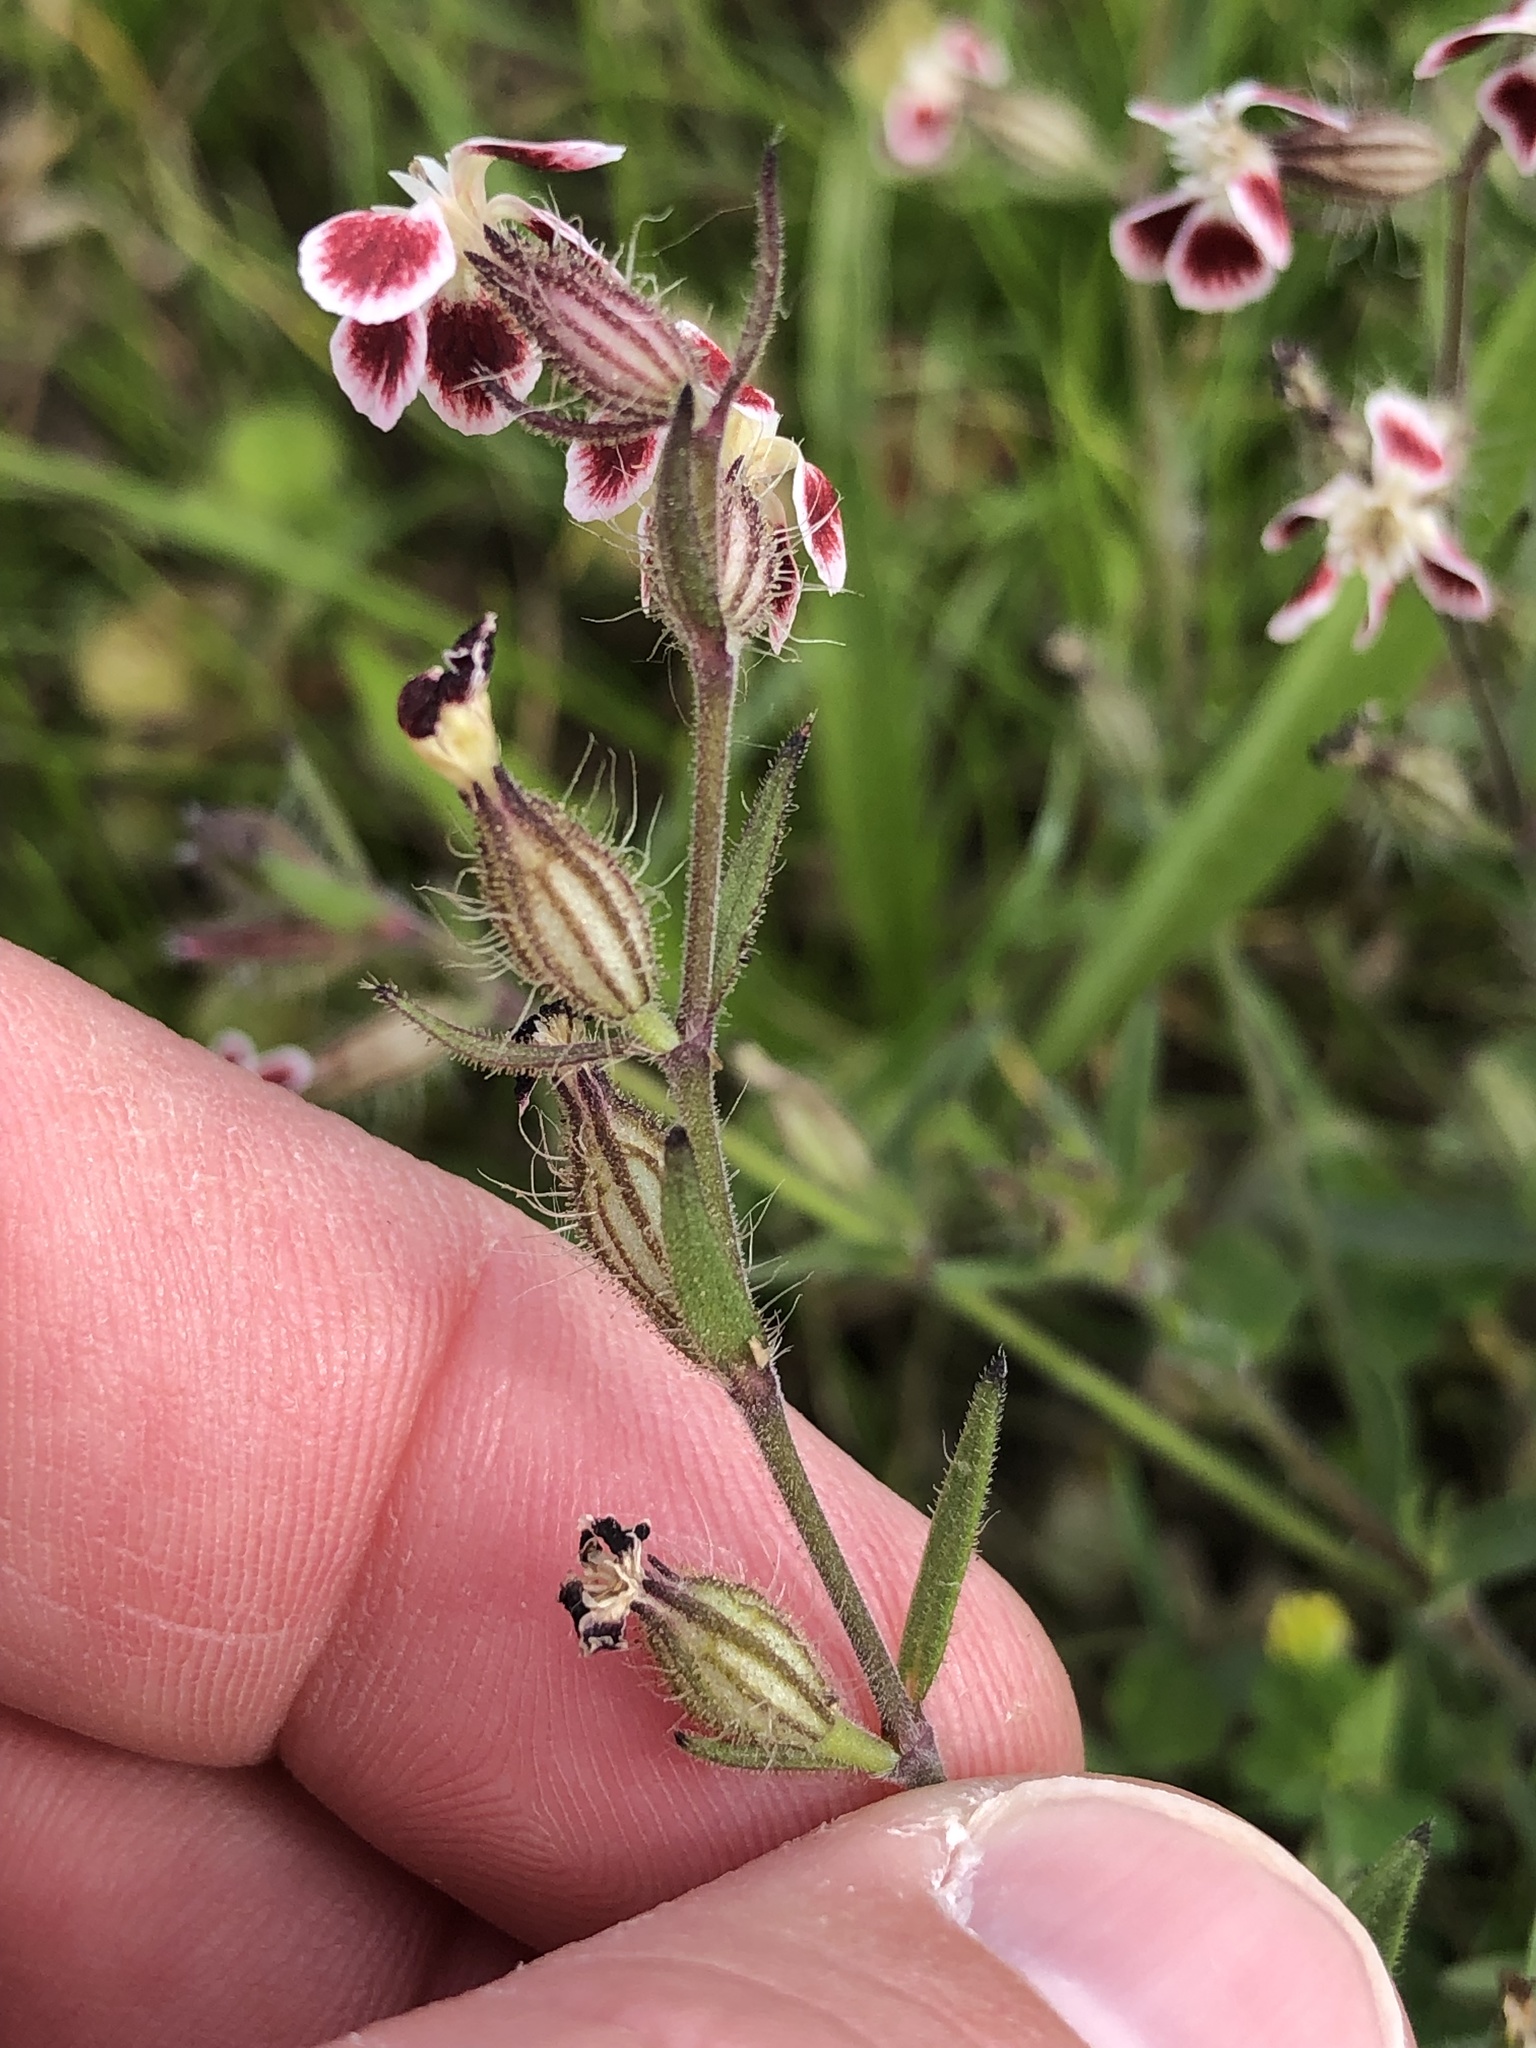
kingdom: Plantae
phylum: Tracheophyta
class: Magnoliopsida
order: Caryophyllales
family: Caryophyllaceae
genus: Silene
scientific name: Silene gallica
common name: Small-flowered catchfly
